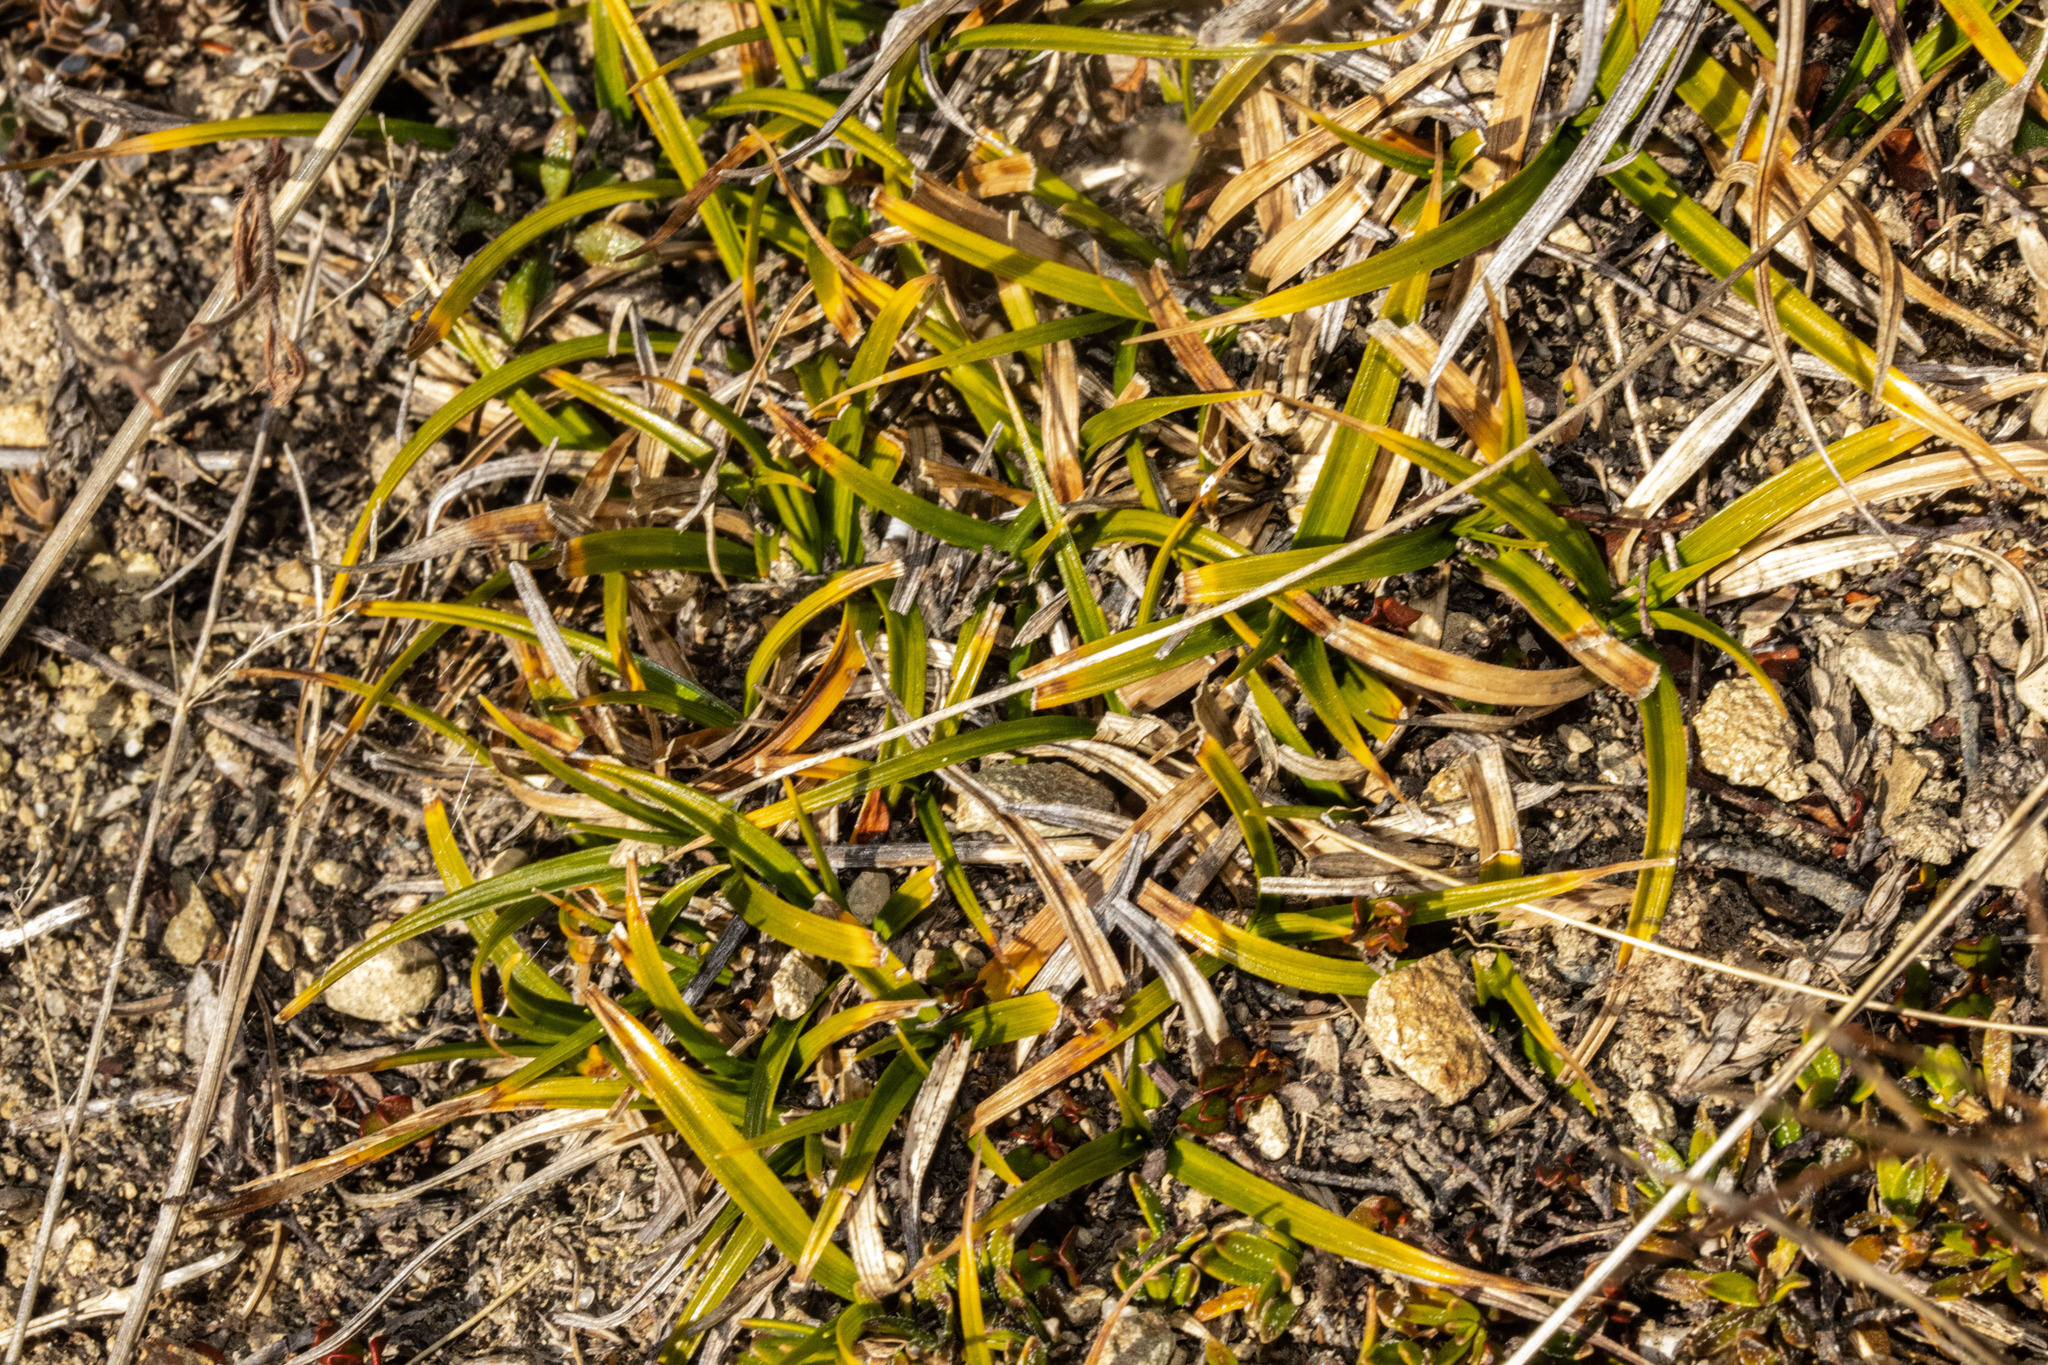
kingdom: Plantae
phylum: Tracheophyta
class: Liliopsida
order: Asparagales
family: Asteliaceae
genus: Astelia
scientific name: Astelia linearis
